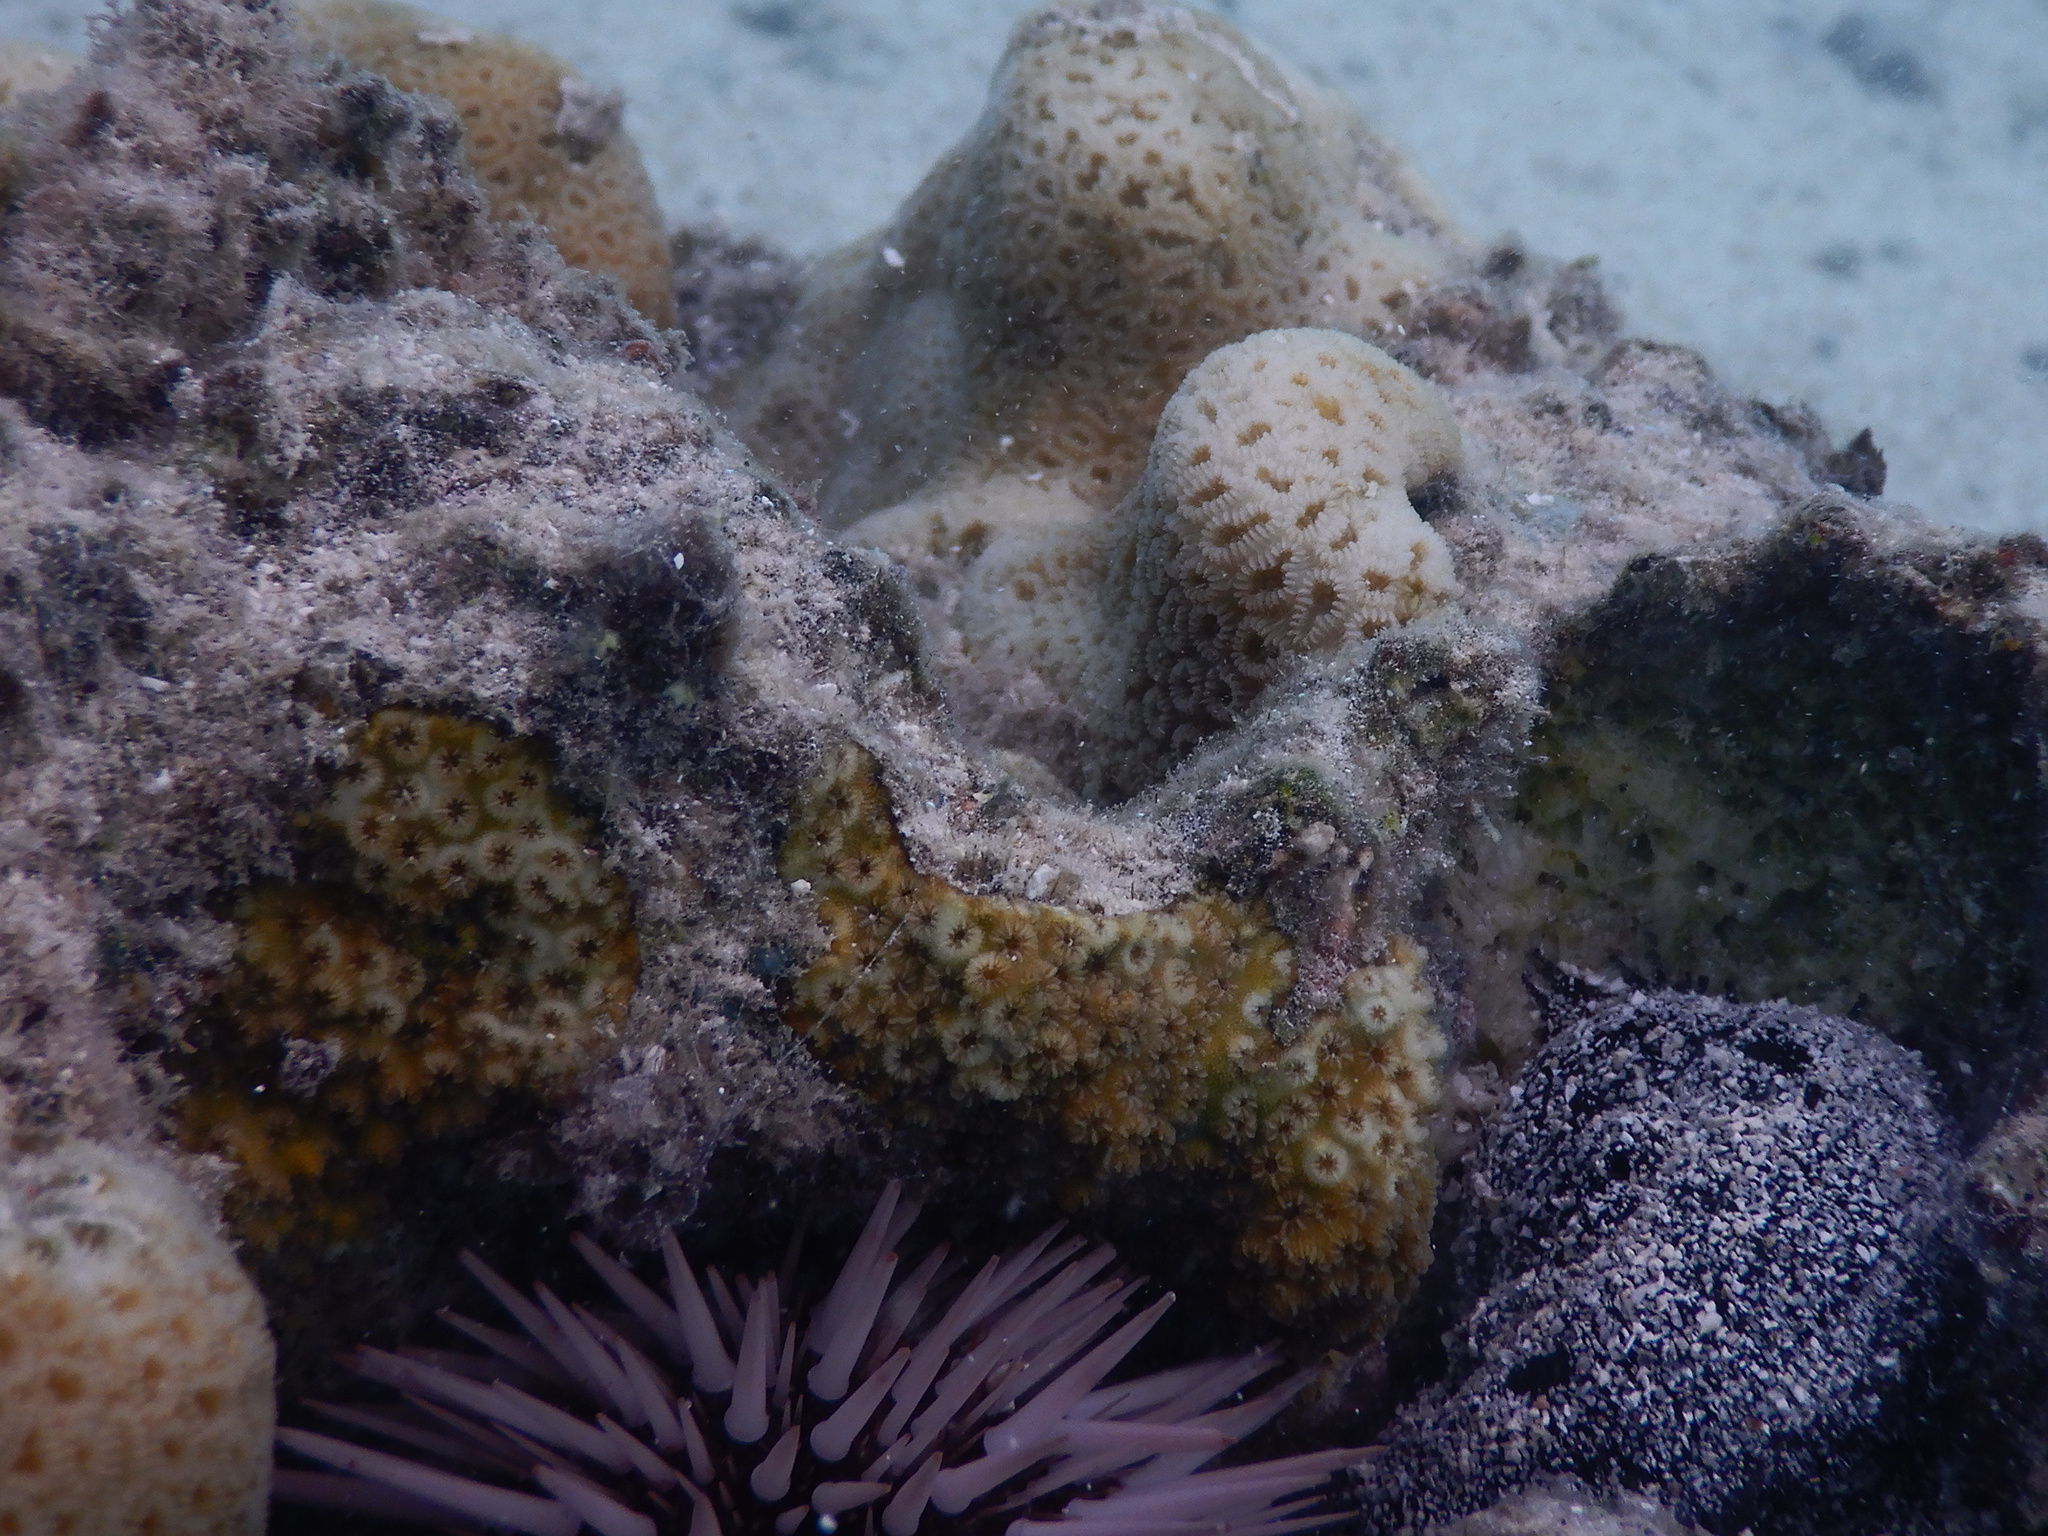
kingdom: Animalia
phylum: Echinodermata
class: Echinoidea
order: Camarodonta
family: Echinometridae
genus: Echinometra
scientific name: Echinometra mathaei
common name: Rock-boring urchin
